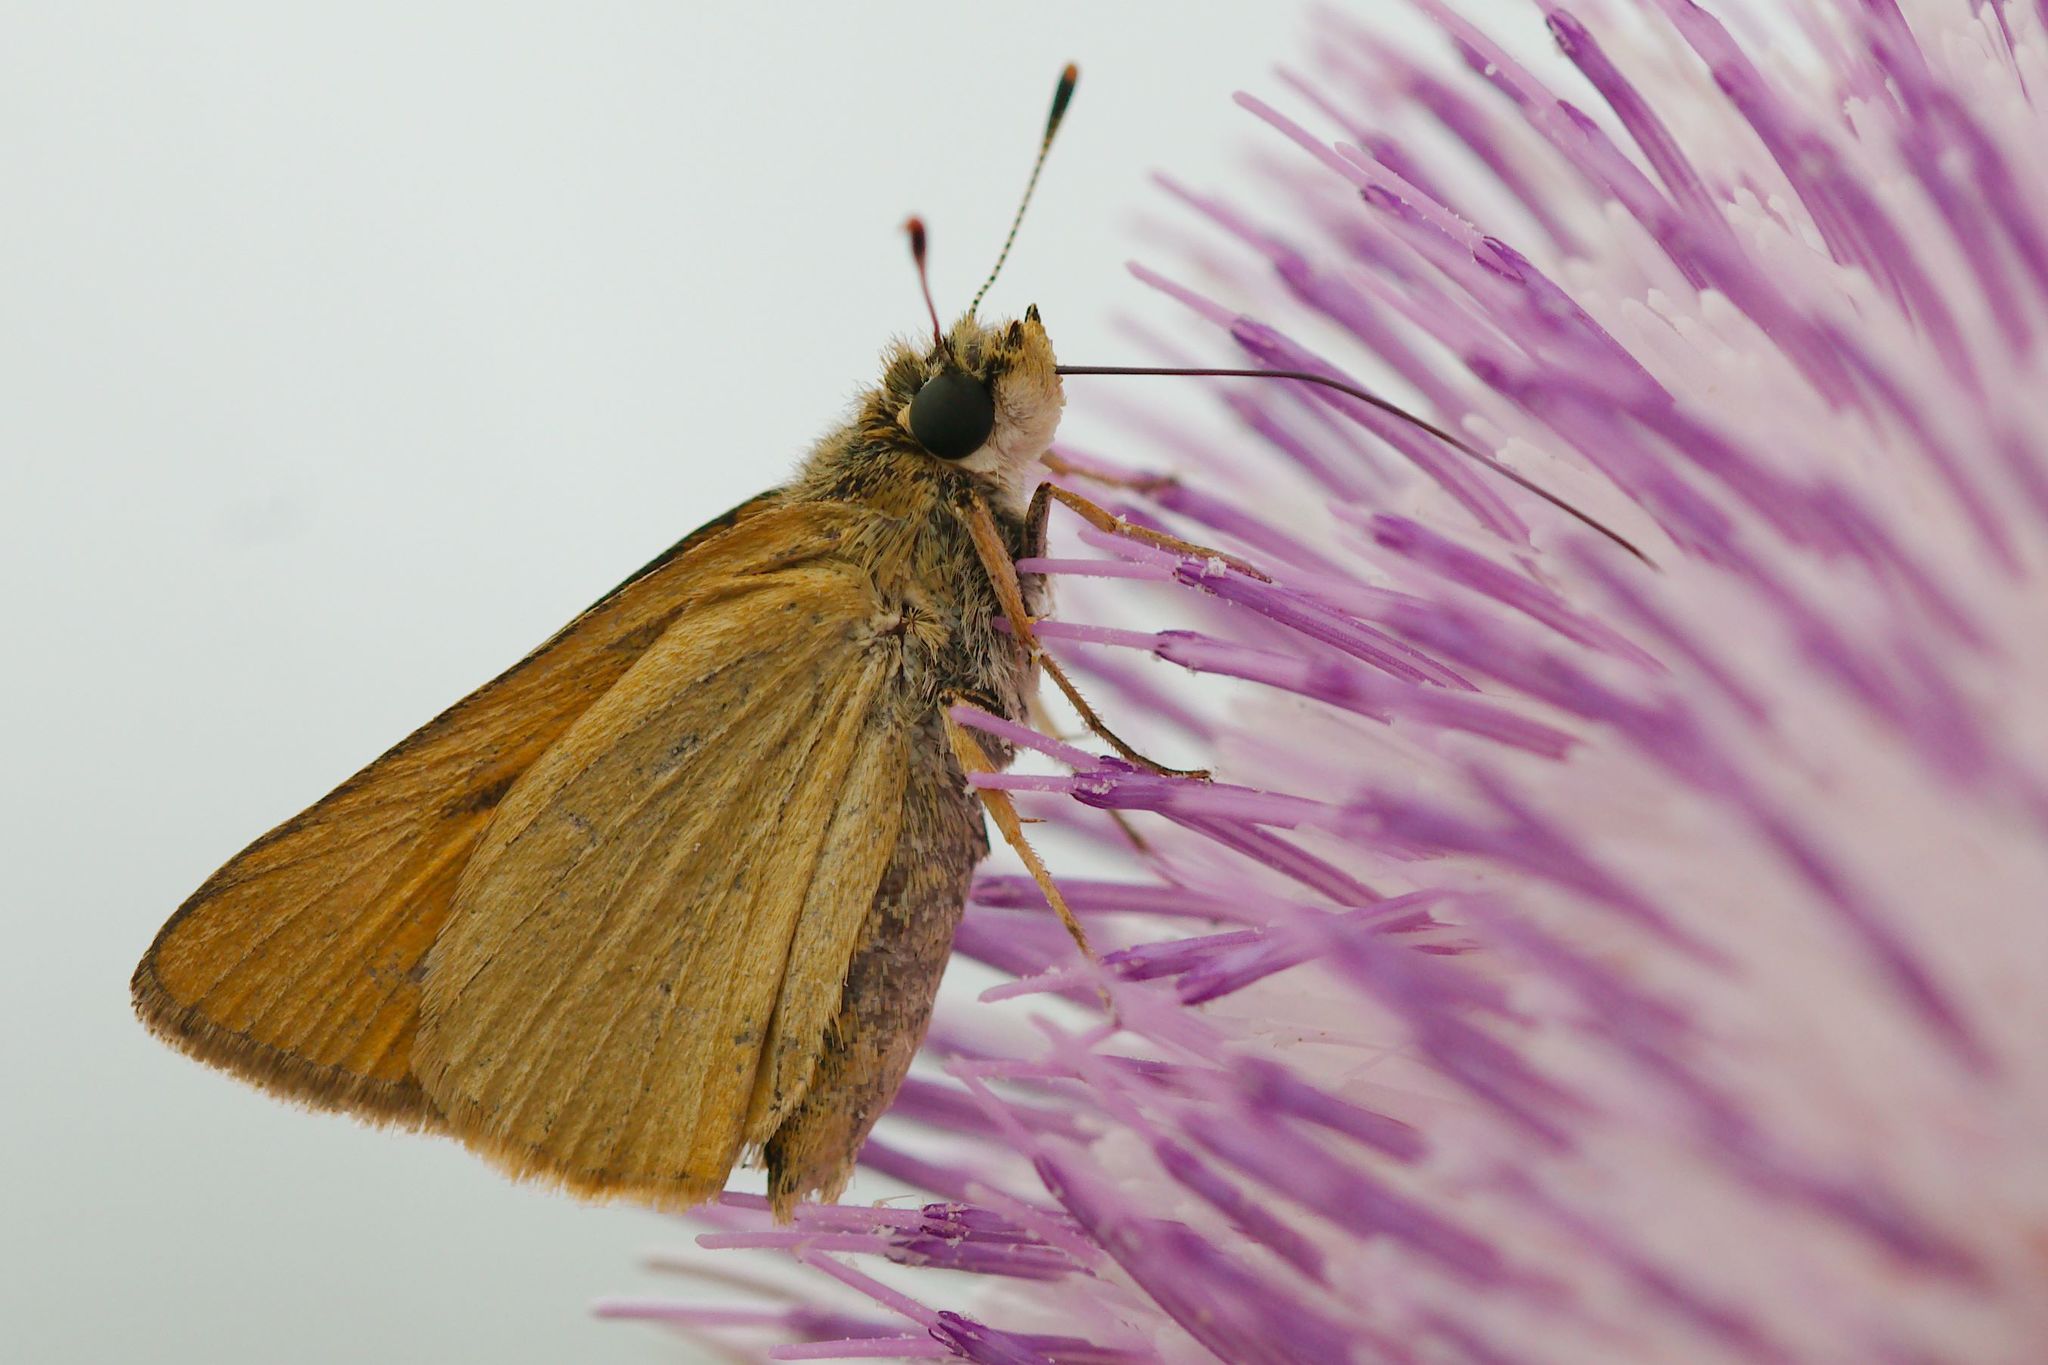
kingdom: Animalia
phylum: Arthropoda
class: Insecta
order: Lepidoptera
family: Hesperiidae
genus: Atrytone
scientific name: Atrytone delaware
